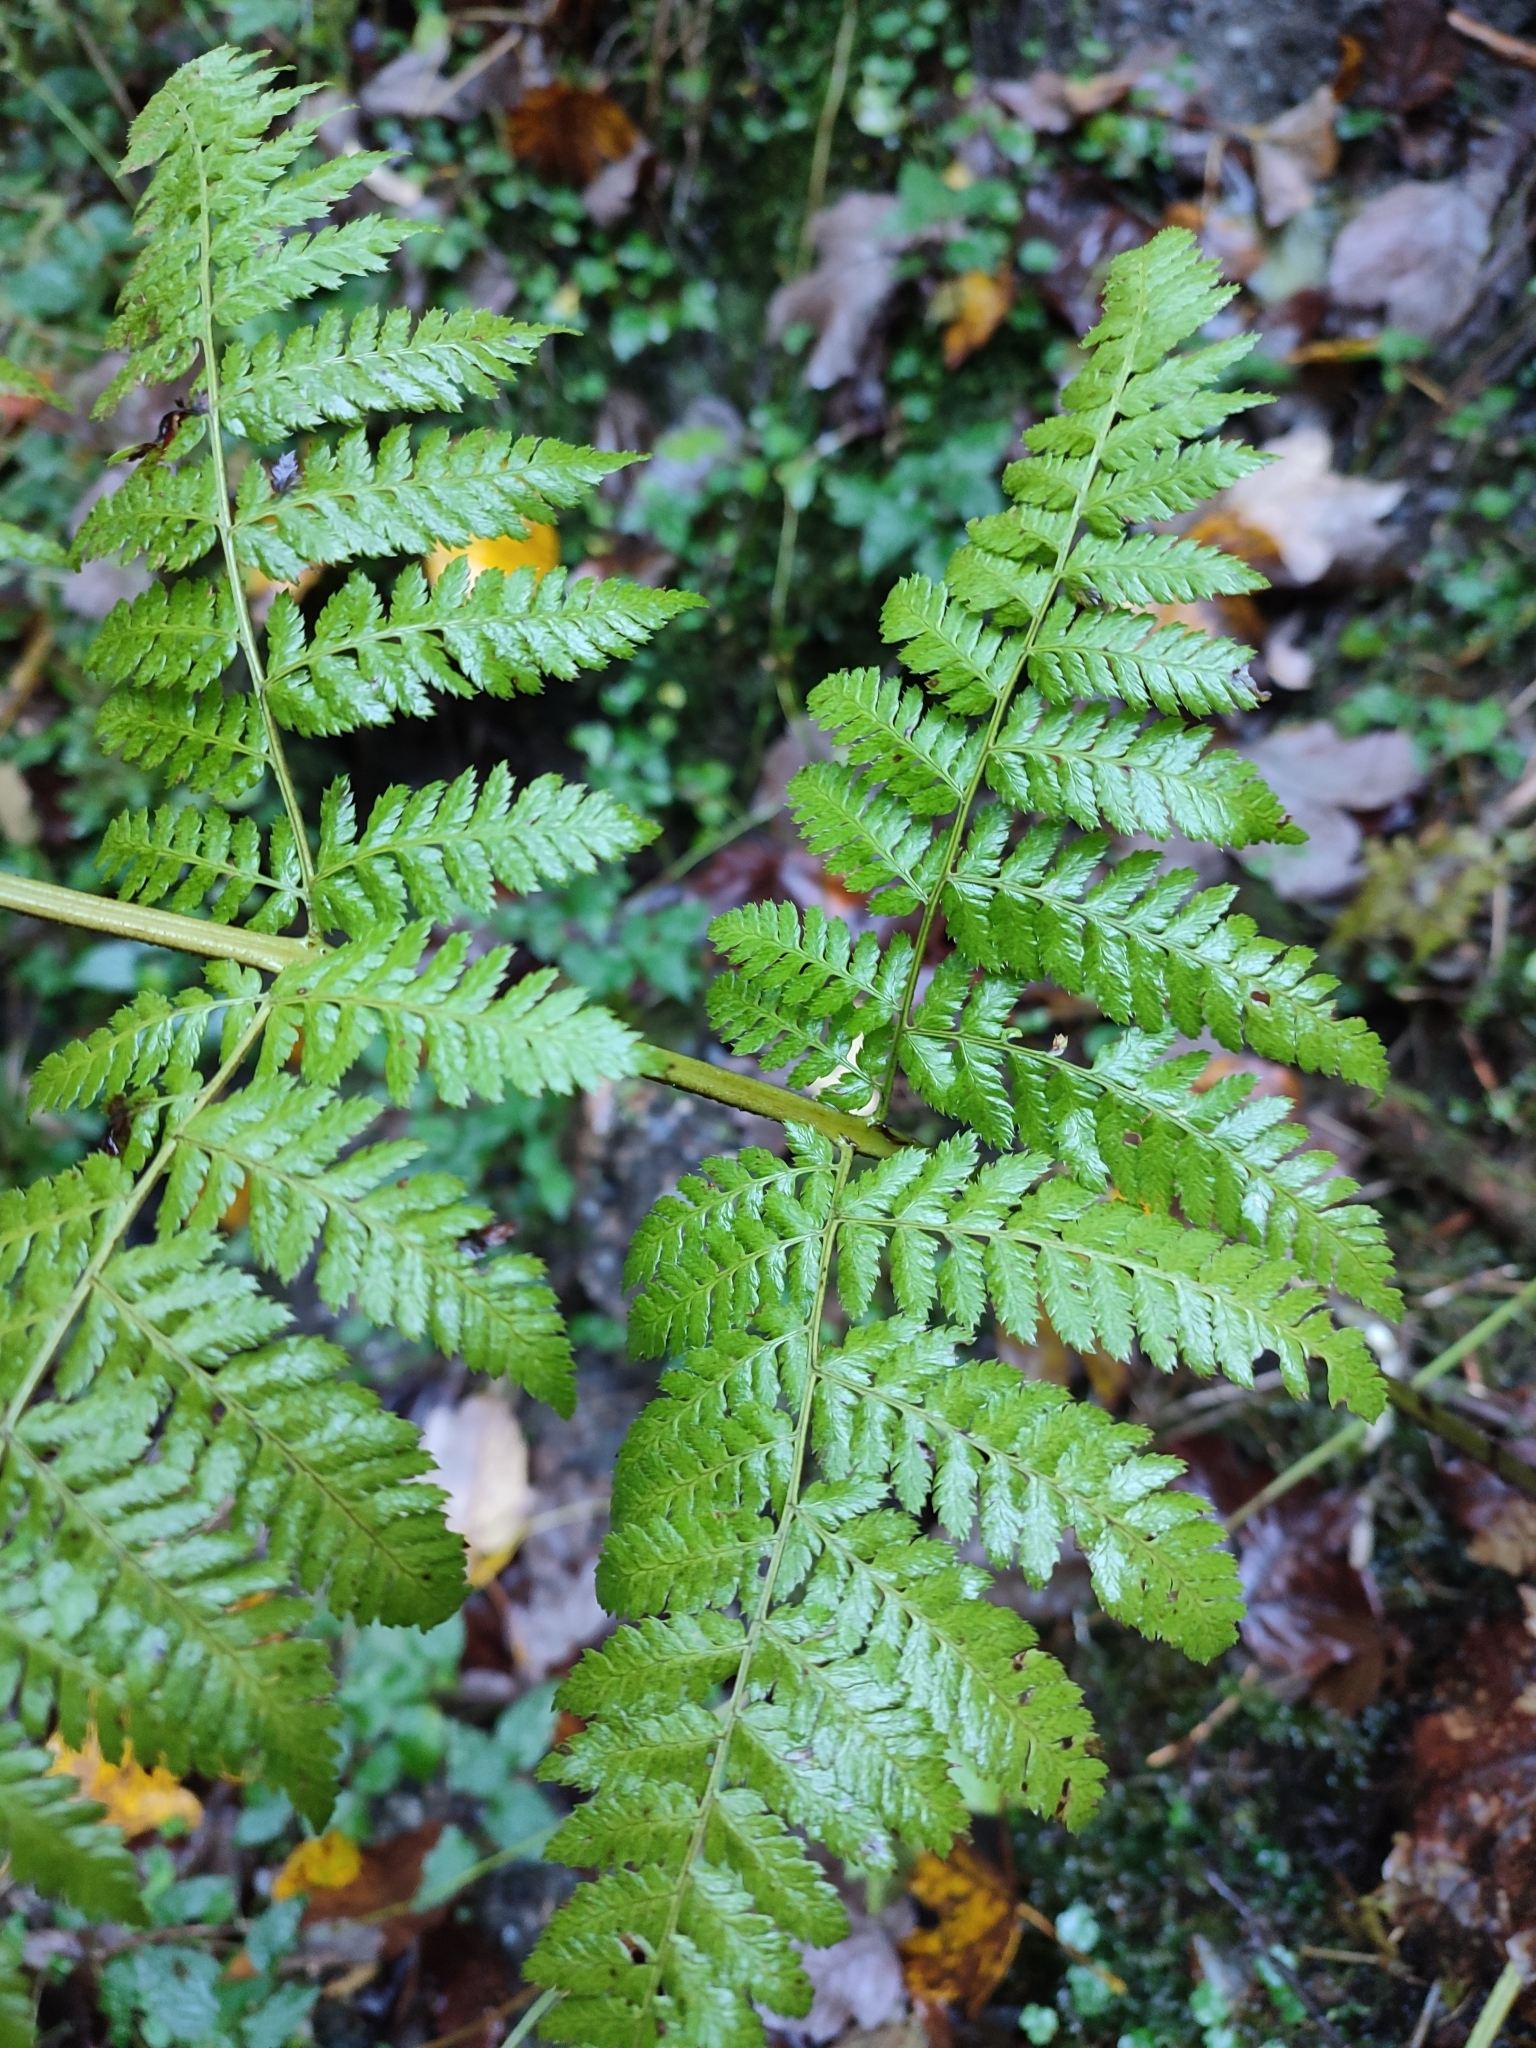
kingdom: Plantae
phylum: Tracheophyta
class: Polypodiopsida
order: Polypodiales
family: Dryopteridaceae
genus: Dryopteris
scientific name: Dryopteris expansa
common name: Northern buckler fern
